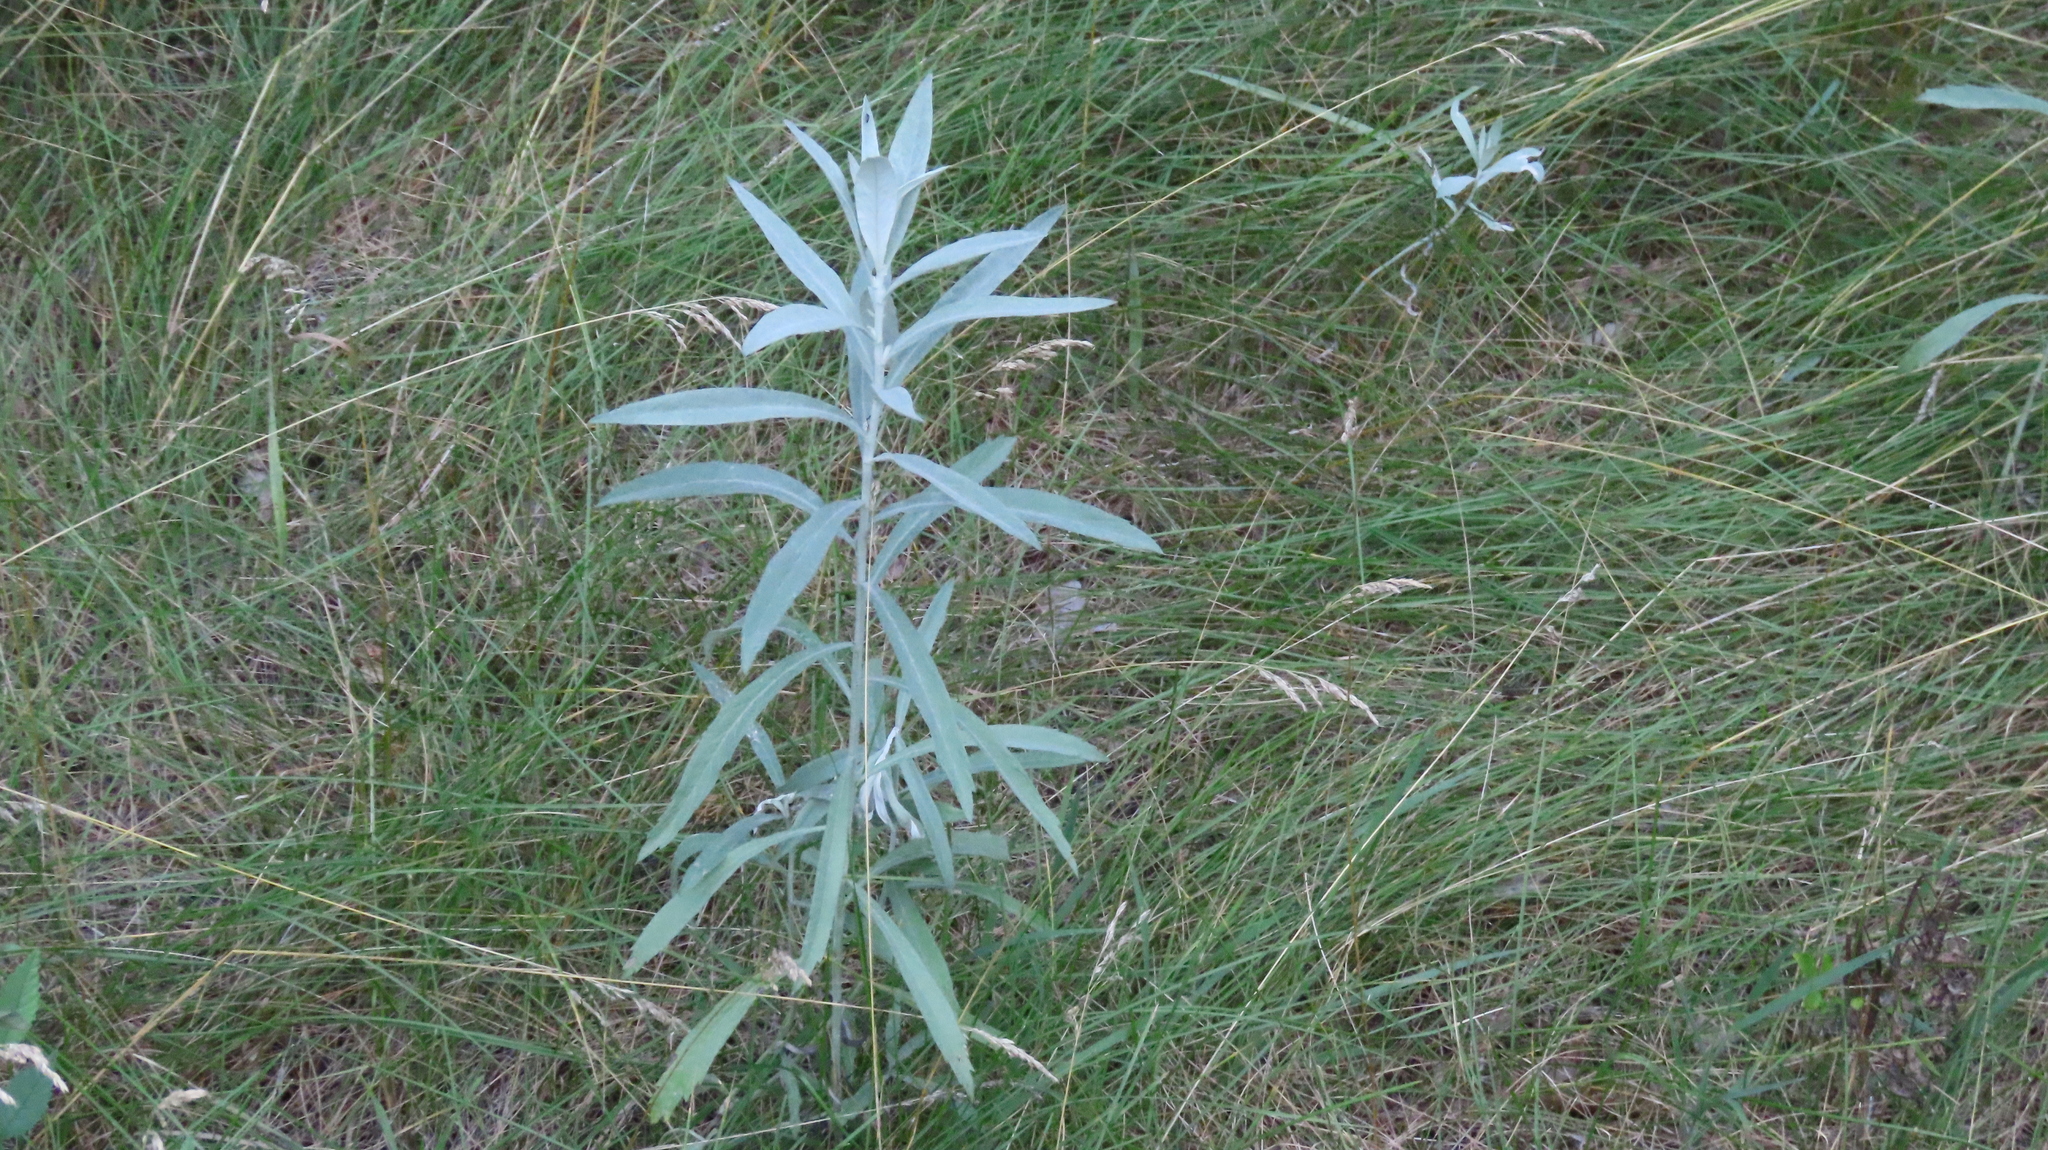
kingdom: Plantae
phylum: Tracheophyta
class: Magnoliopsida
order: Asterales
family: Asteraceae
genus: Artemisia
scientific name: Artemisia ludoviciana
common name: Western mugwort
